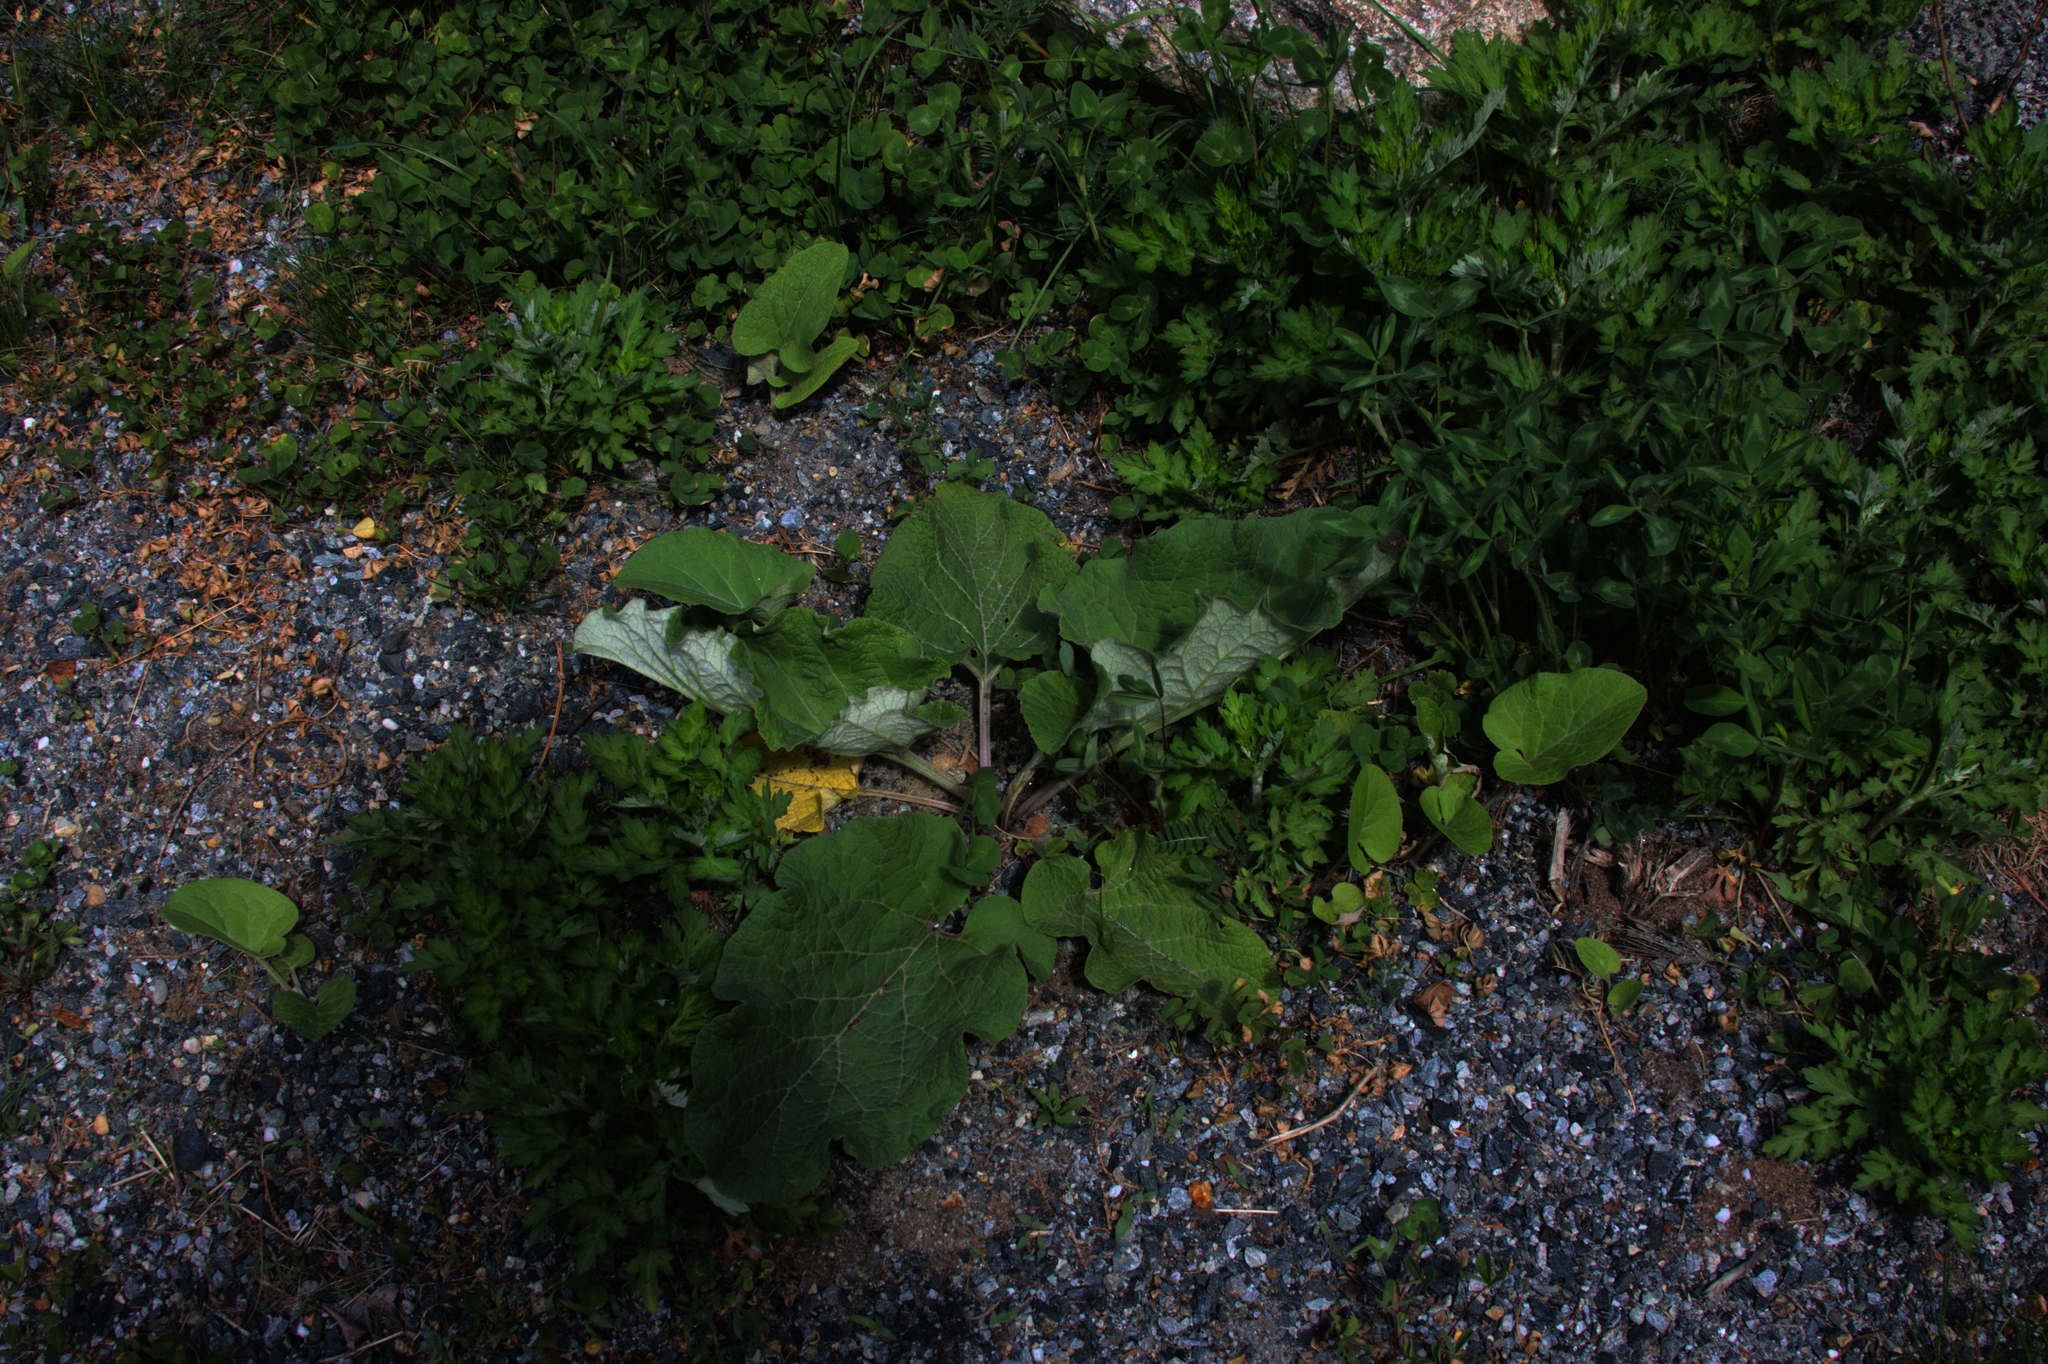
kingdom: Plantae
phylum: Tracheophyta
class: Magnoliopsida
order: Asterales
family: Asteraceae
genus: Arctium
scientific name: Arctium
